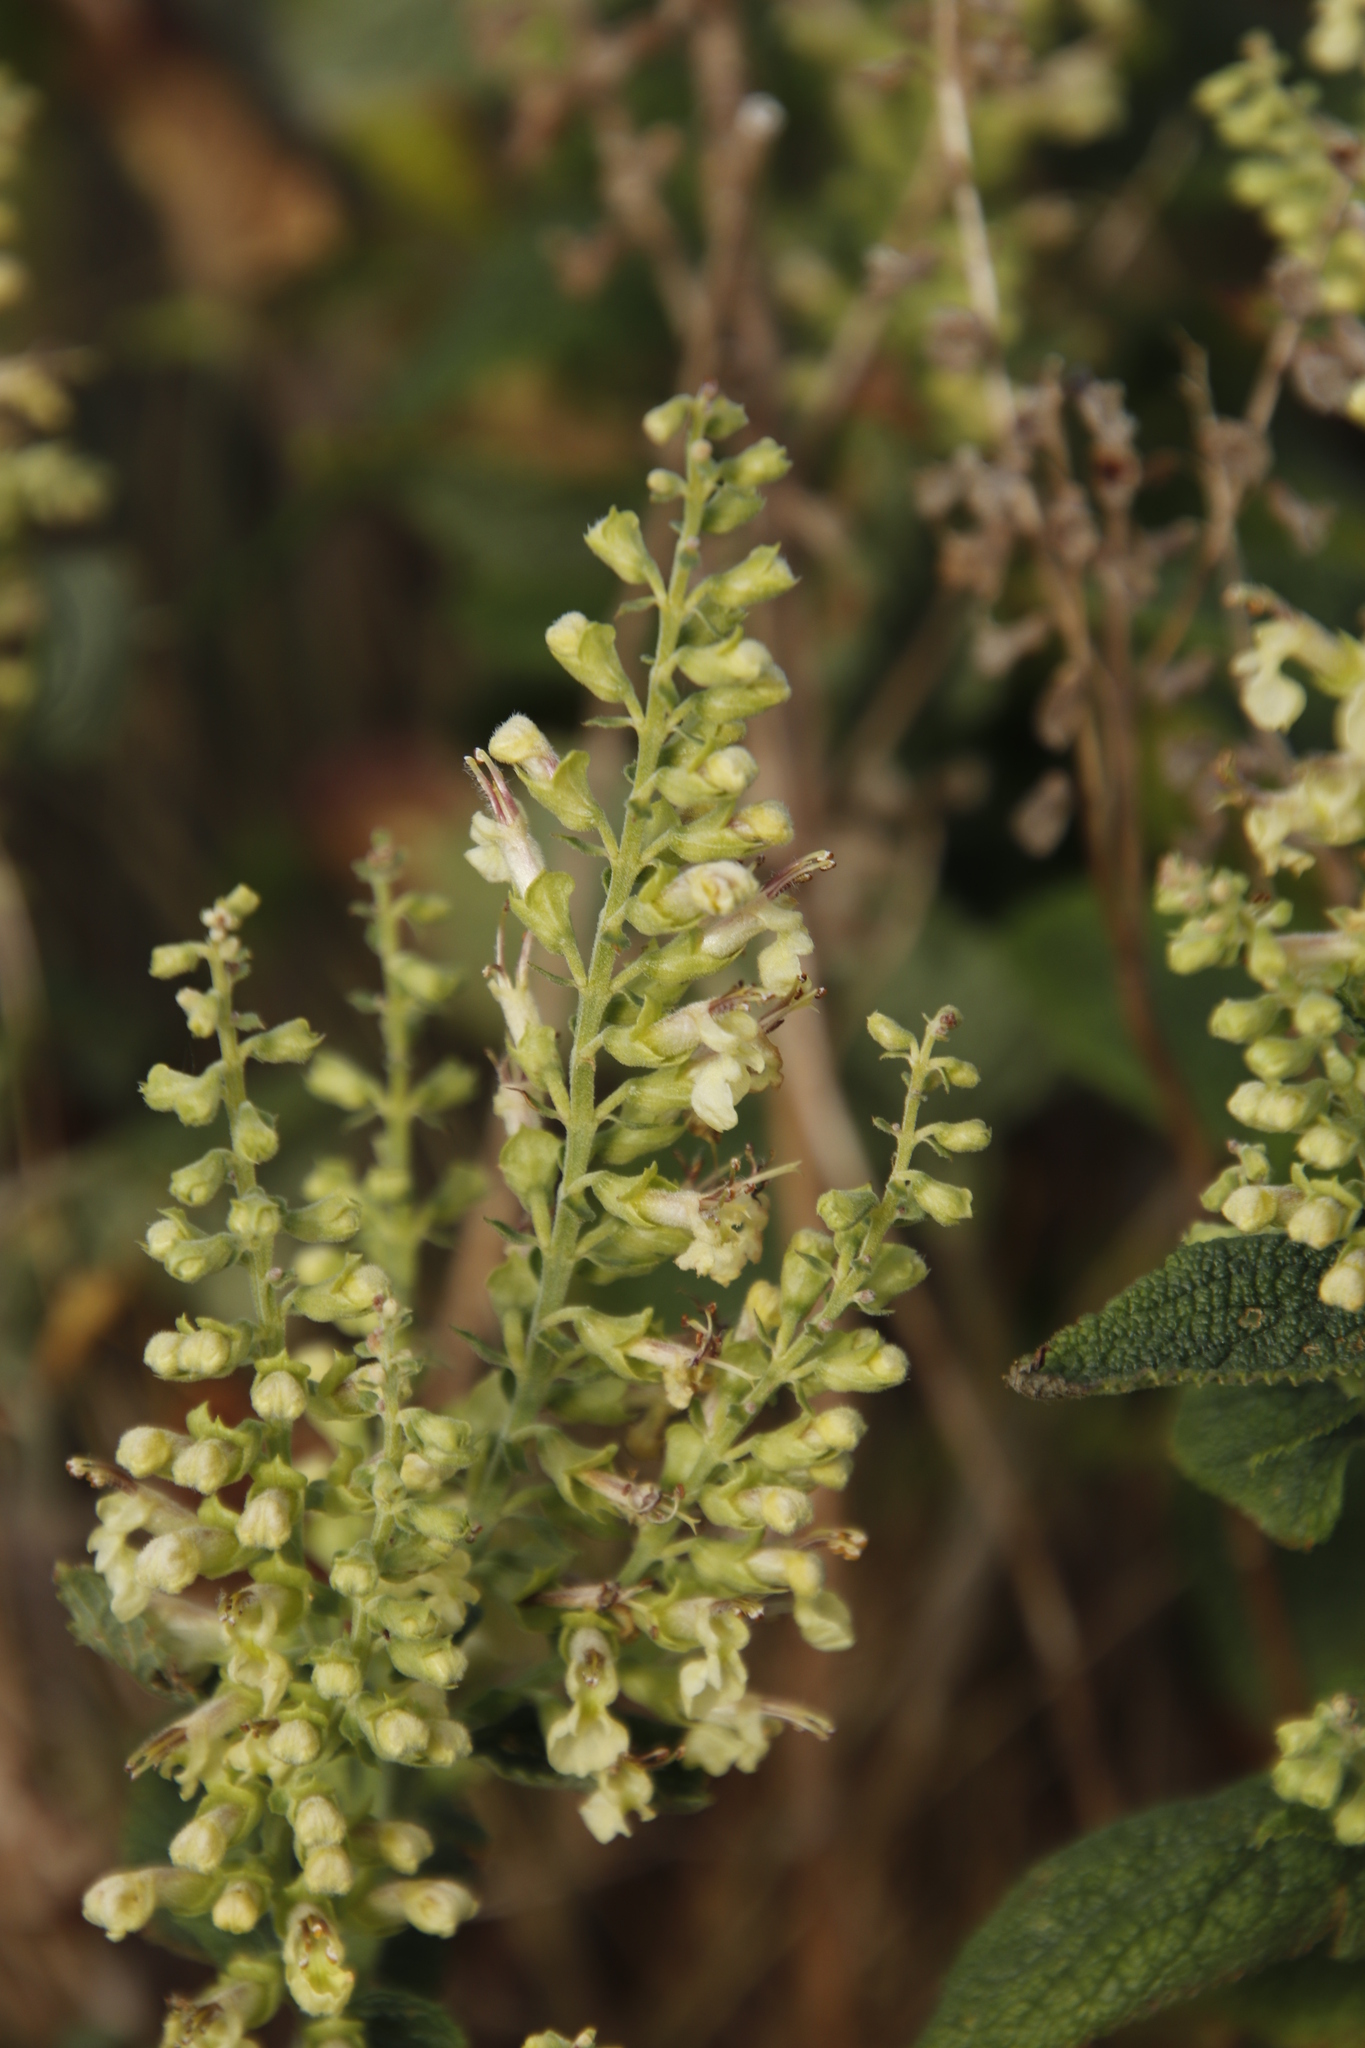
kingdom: Plantae
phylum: Tracheophyta
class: Magnoliopsida
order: Lamiales
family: Lamiaceae
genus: Teucrium
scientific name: Teucrium scorodonia
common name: Woodland germander
